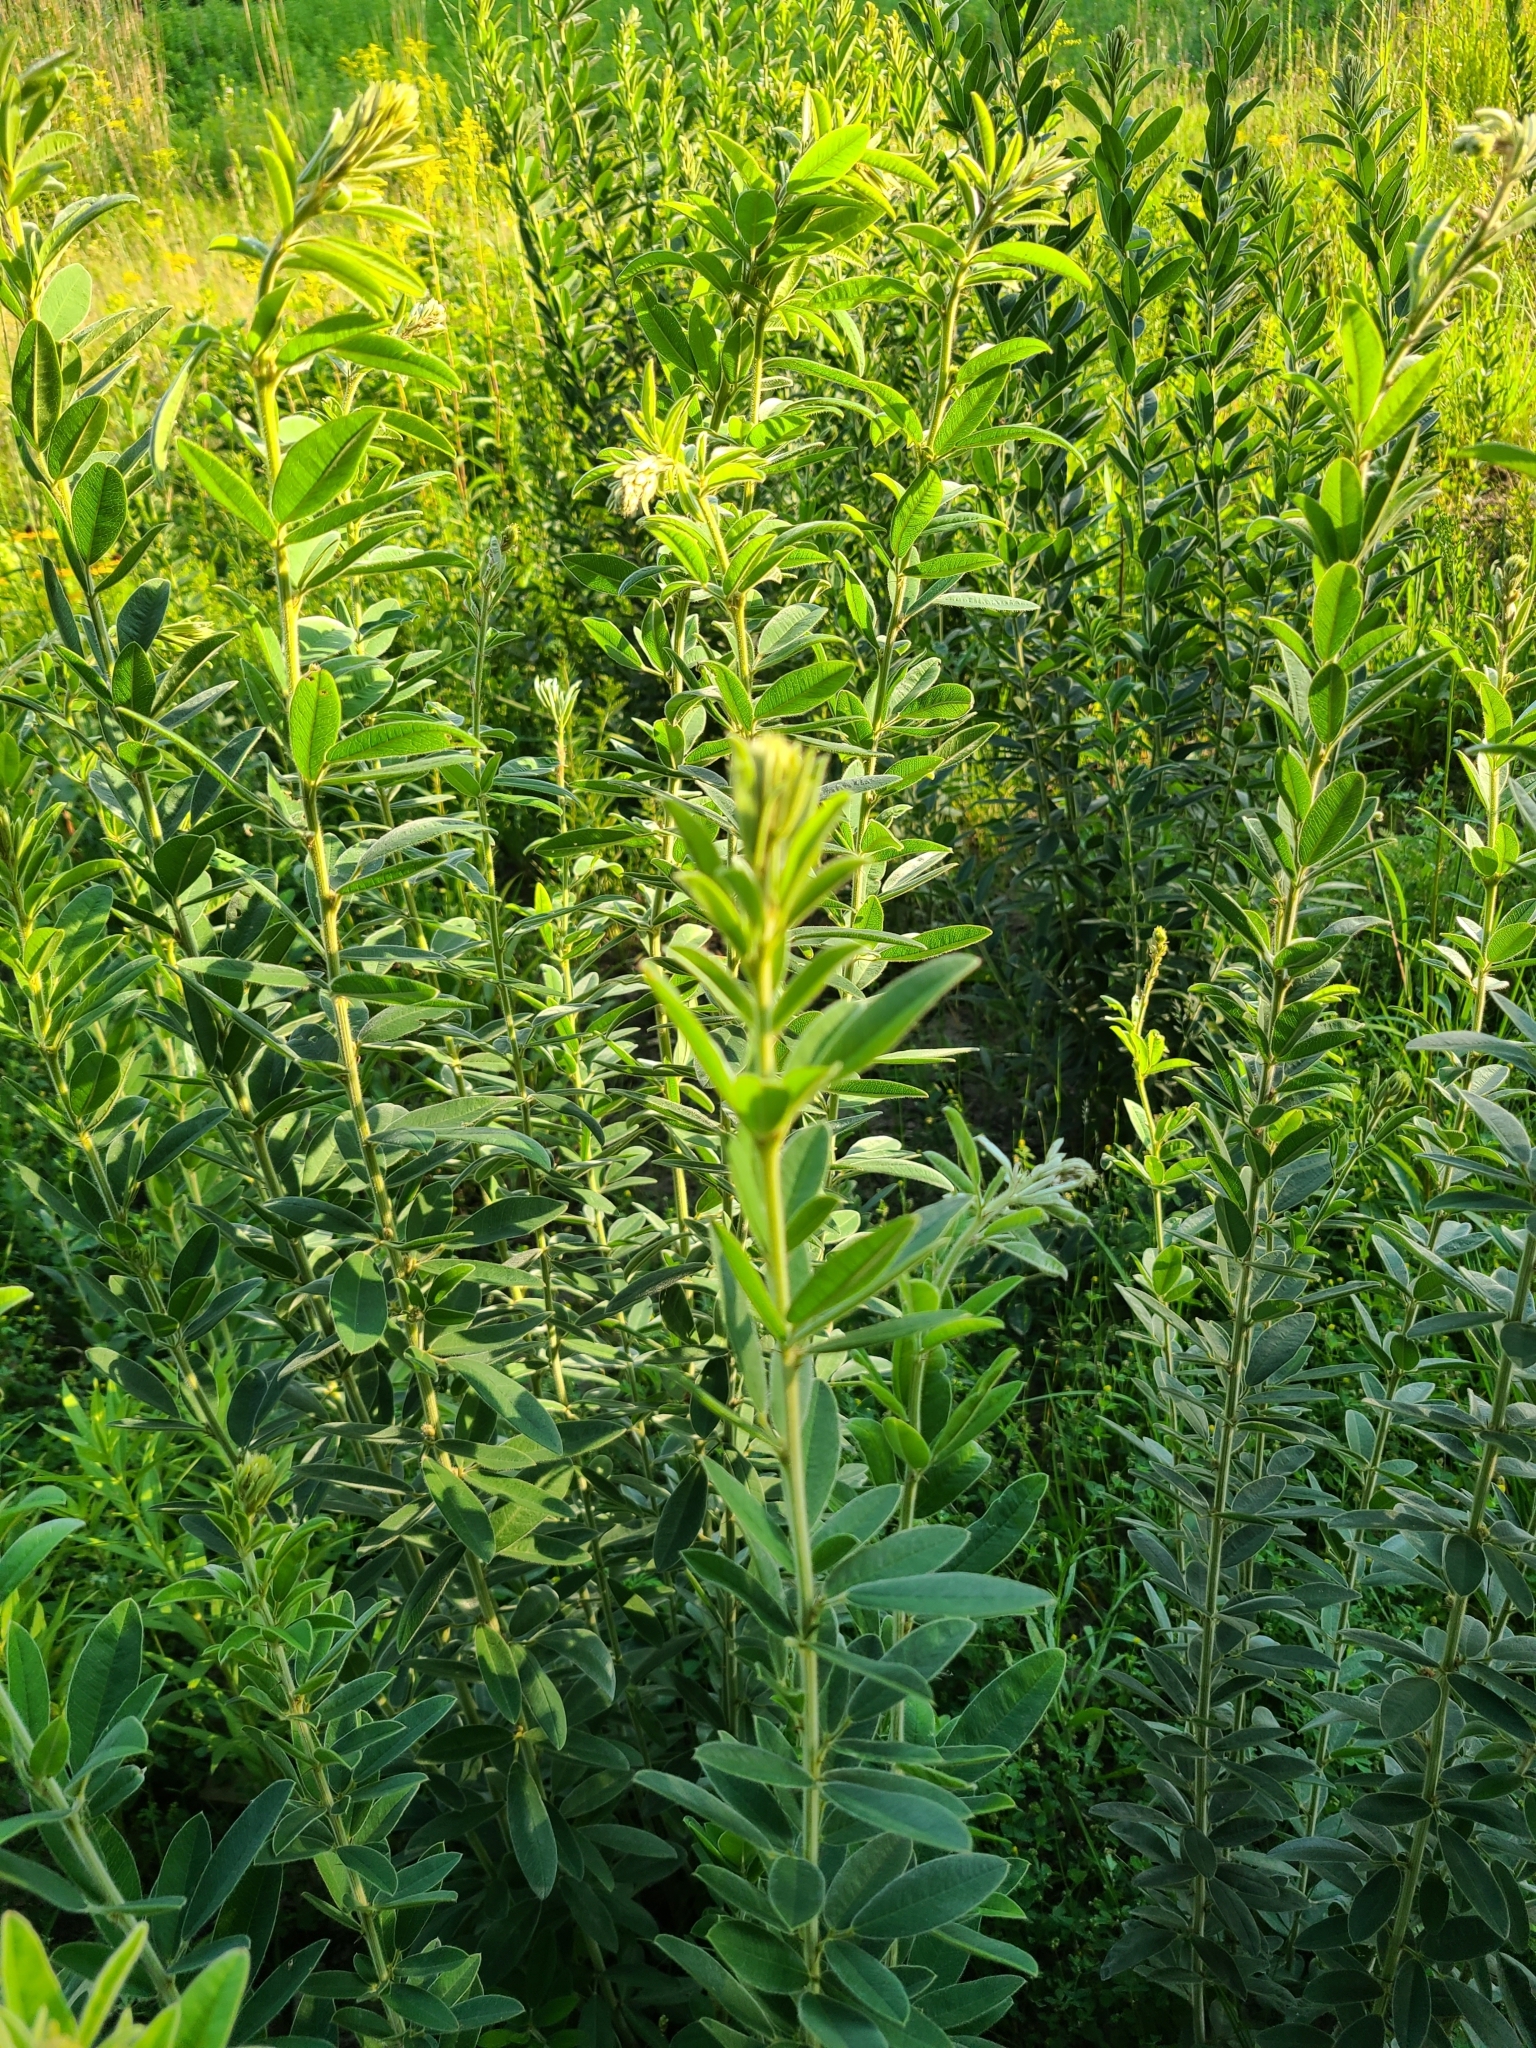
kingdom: Plantae
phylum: Tracheophyta
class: Magnoliopsida
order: Fabales
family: Fabaceae
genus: Lespedeza
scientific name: Lespedeza capitata
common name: Dusty clover
